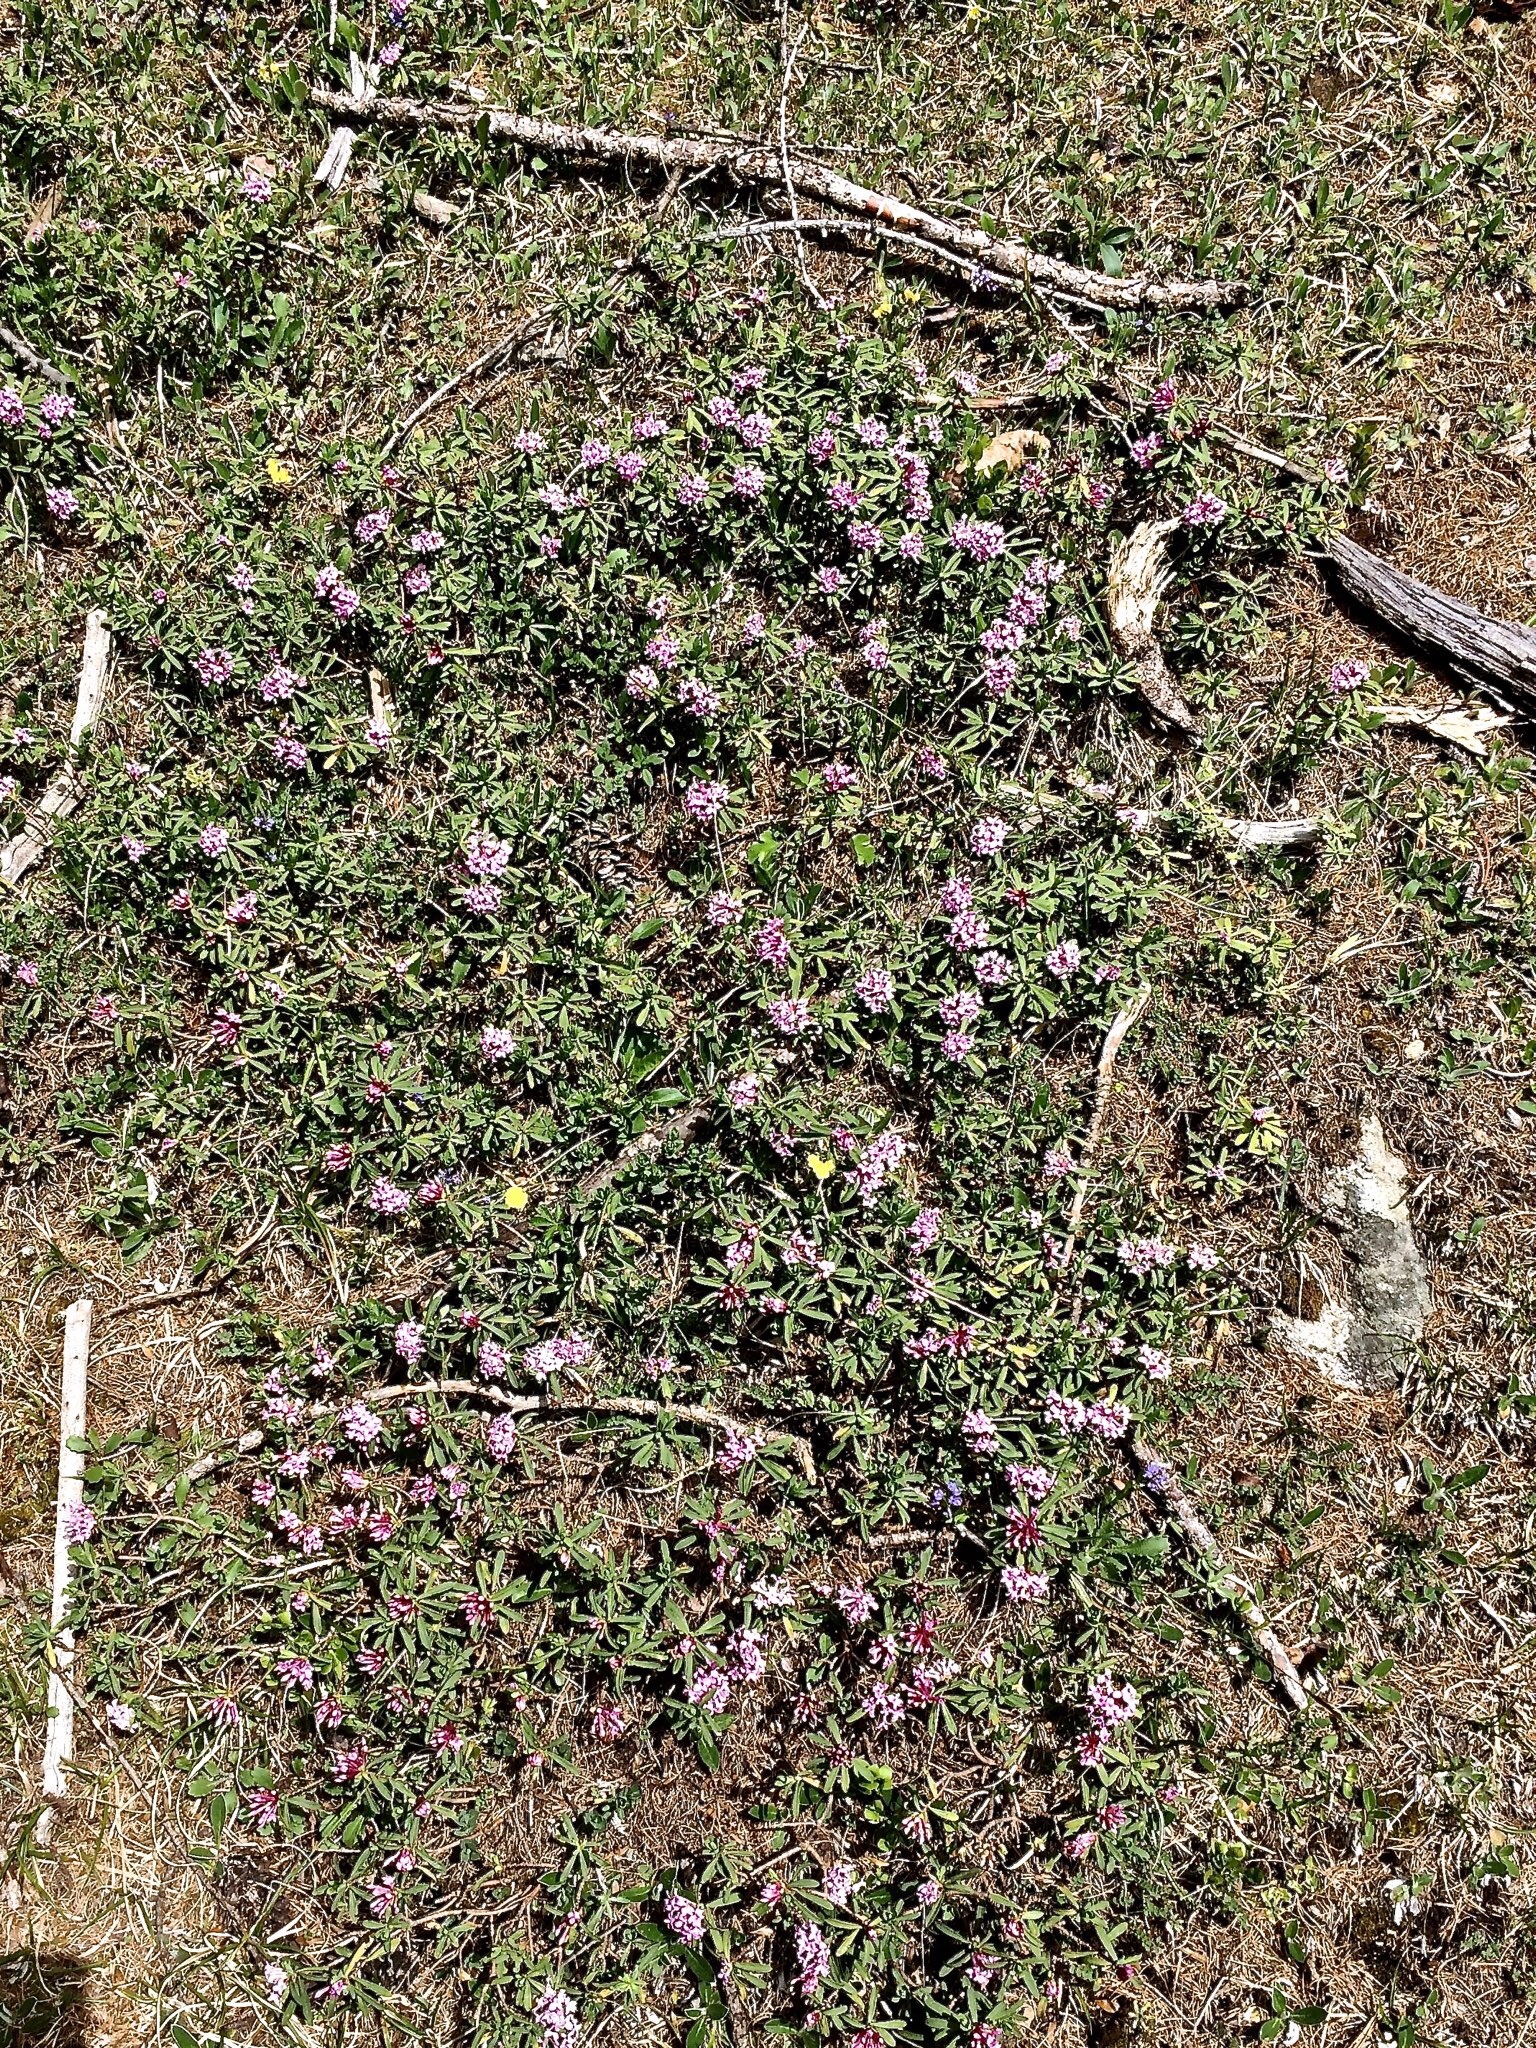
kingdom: Plantae
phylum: Tracheophyta
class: Magnoliopsida
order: Malvales
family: Thymelaeaceae
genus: Daphne
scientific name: Daphne striata
